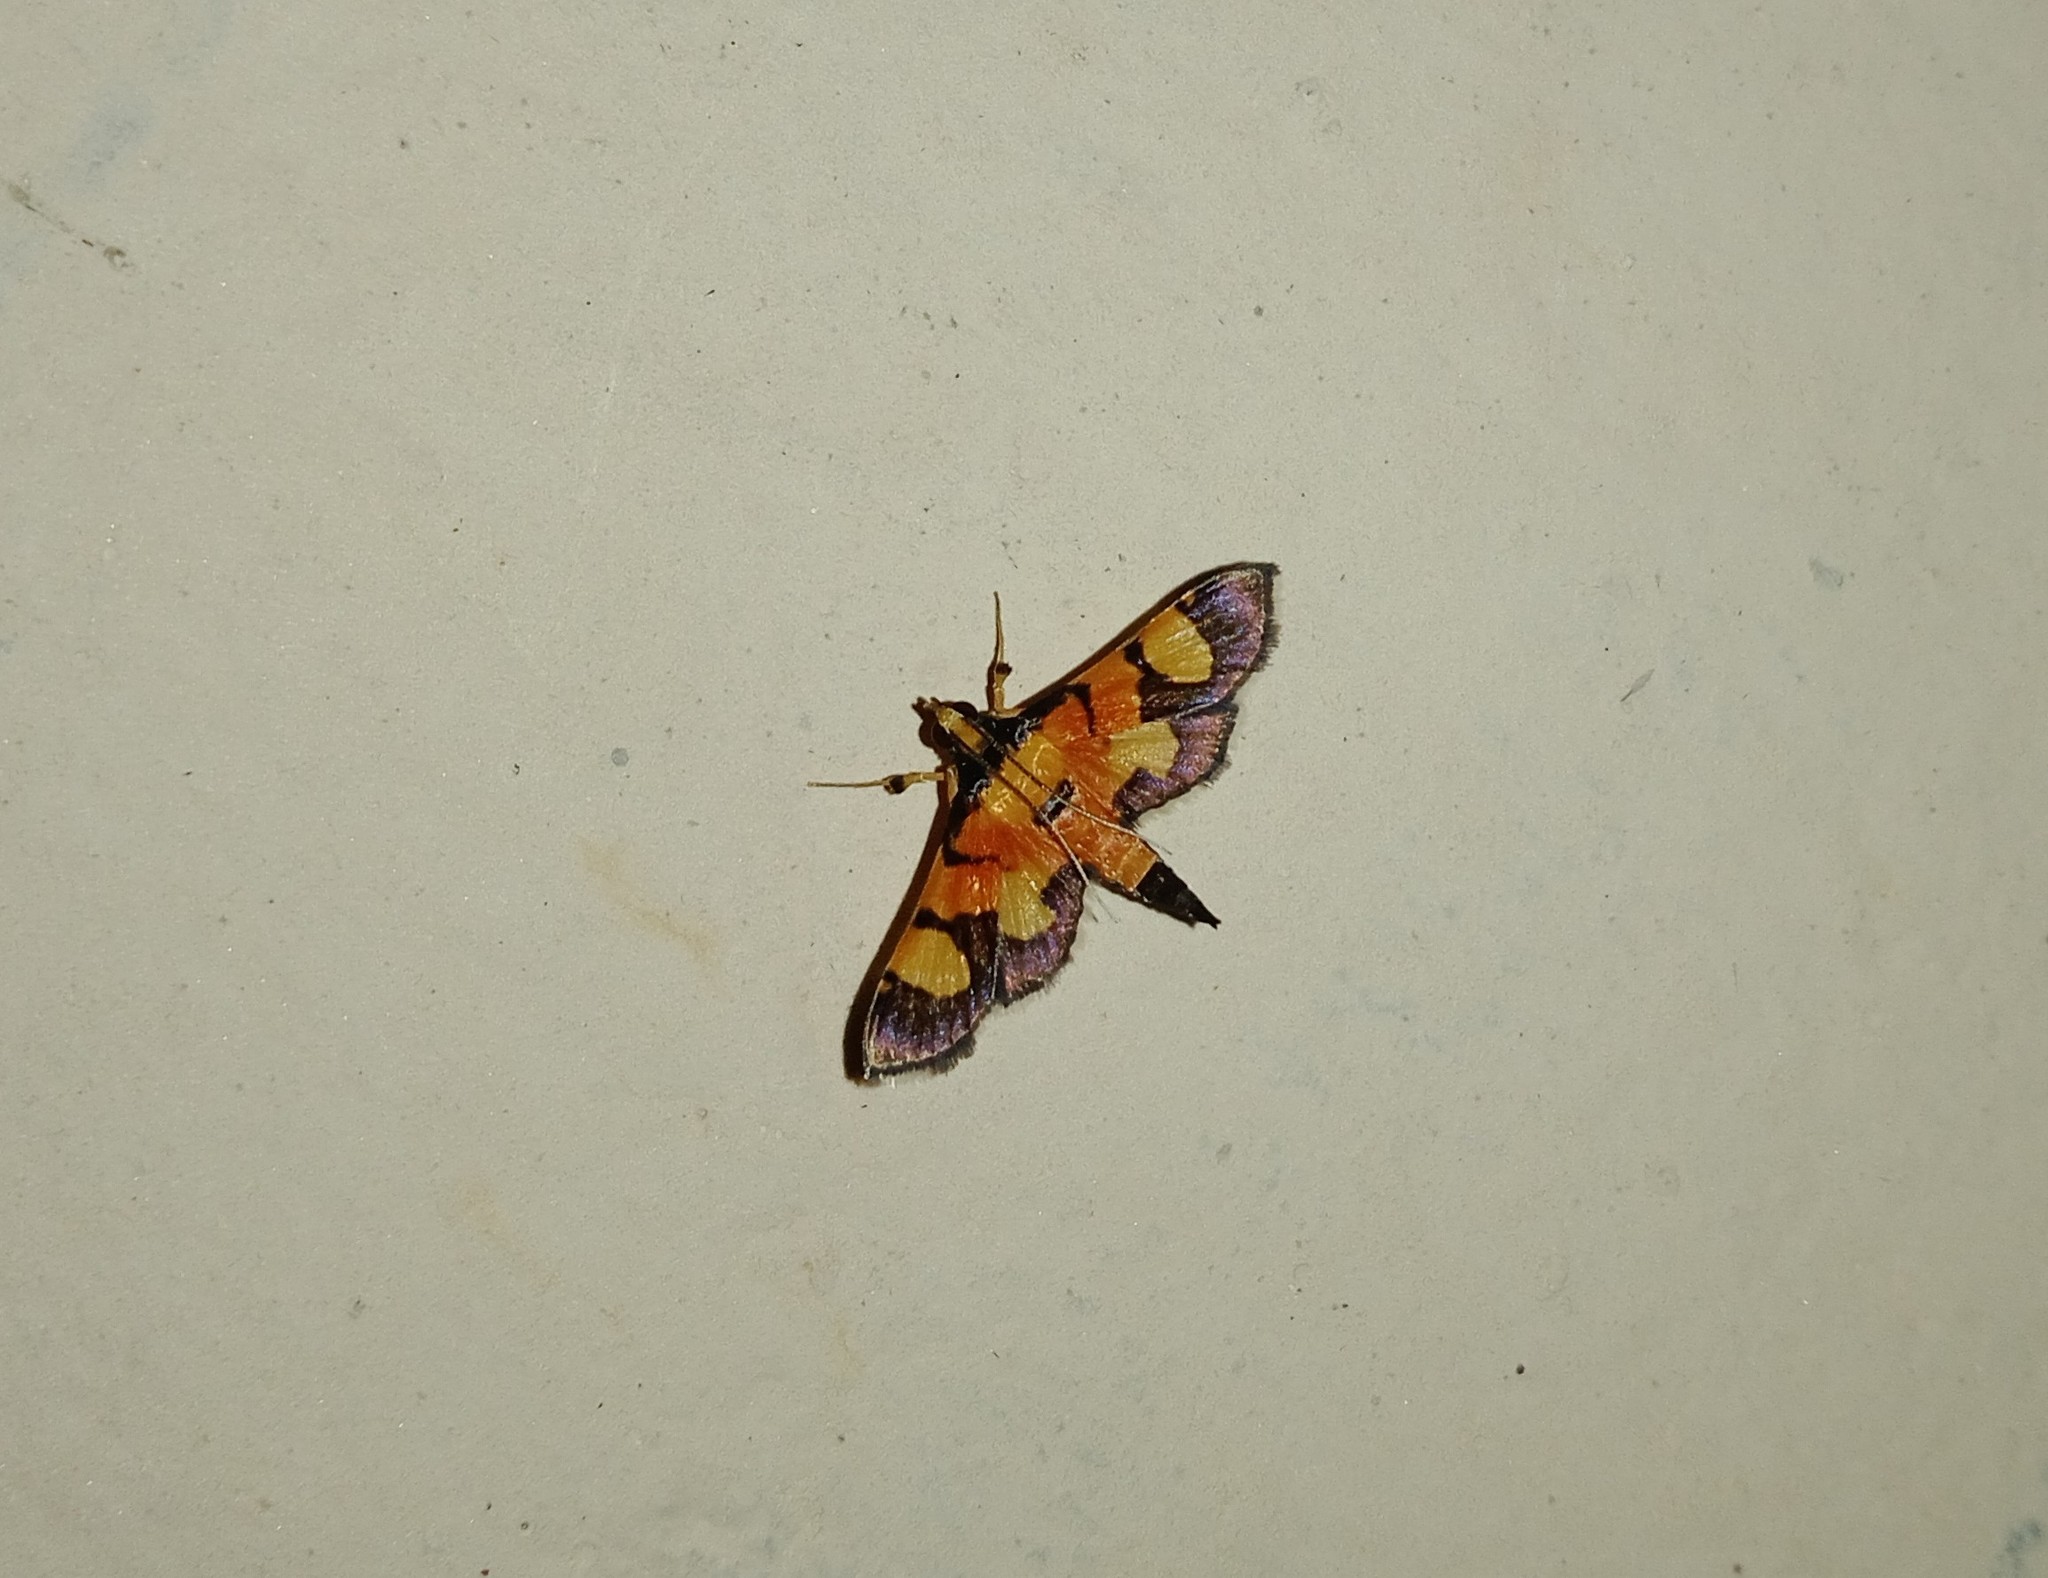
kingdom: Animalia
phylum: Arthropoda
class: Insecta
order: Lepidoptera
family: Crambidae
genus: Aethaloessa
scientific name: Aethaloessa calidalis
